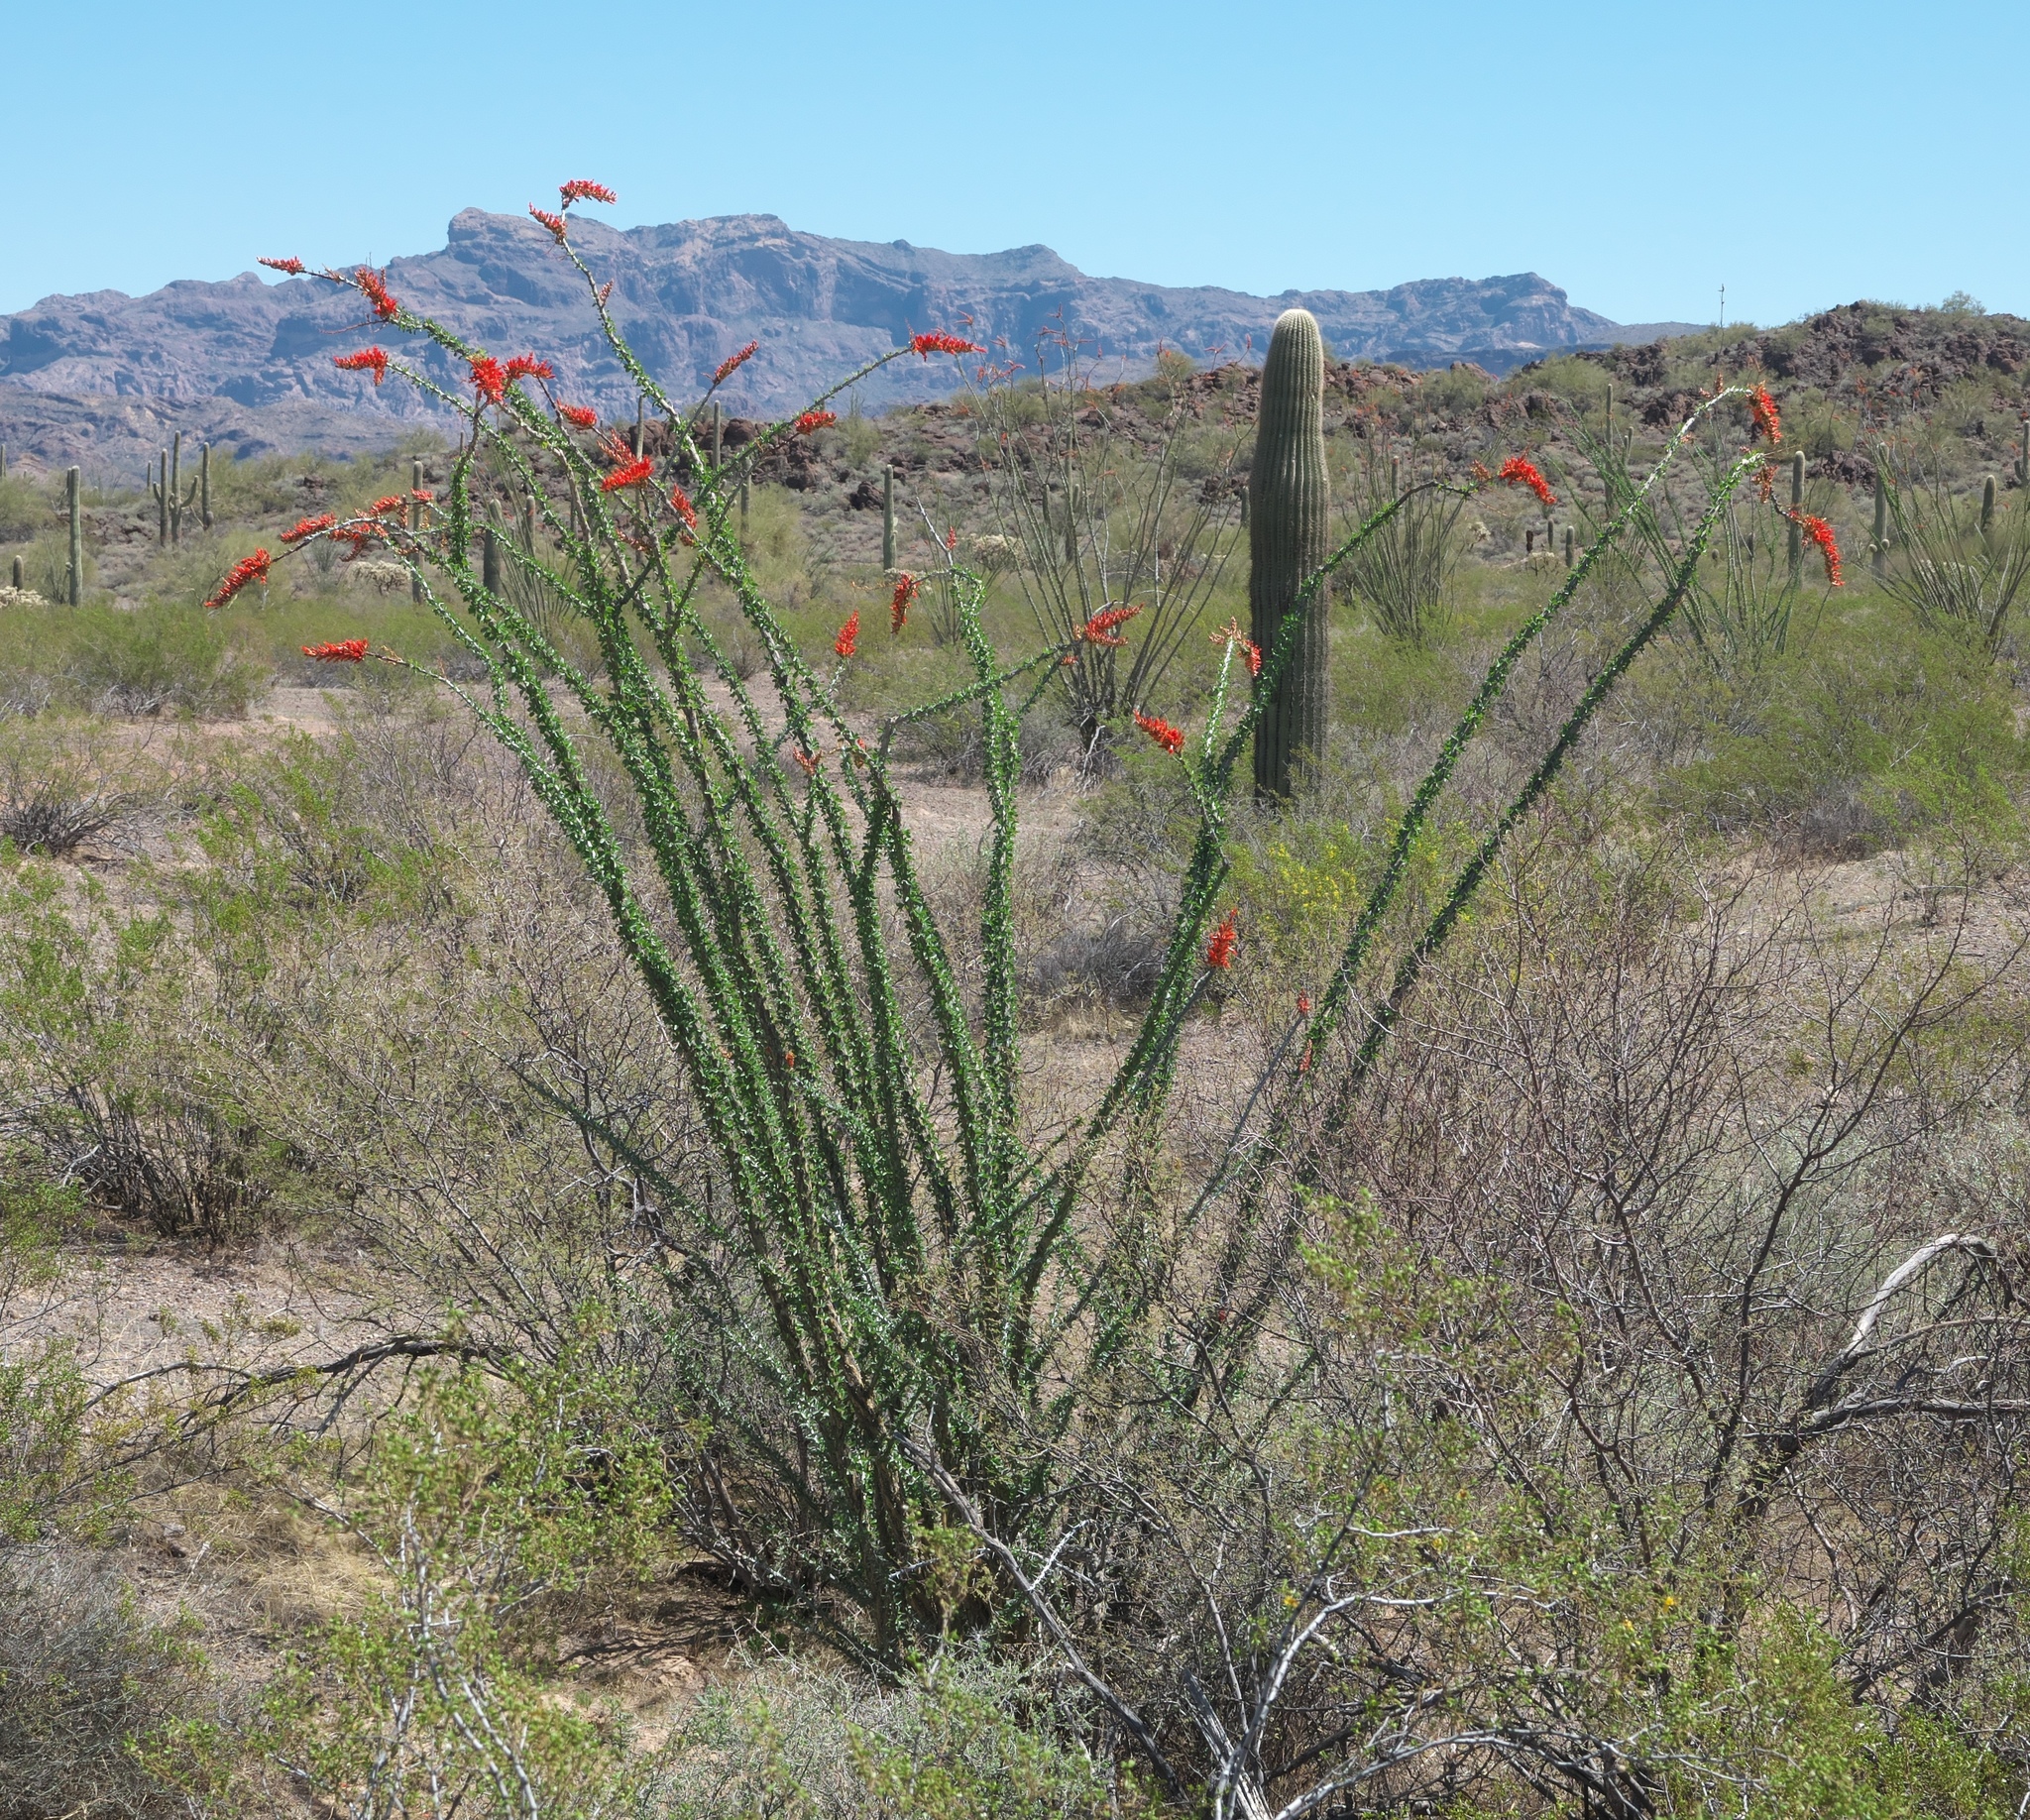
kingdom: Plantae
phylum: Tracheophyta
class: Magnoliopsida
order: Ericales
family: Fouquieriaceae
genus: Fouquieria
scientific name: Fouquieria splendens
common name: Vine-cactus
